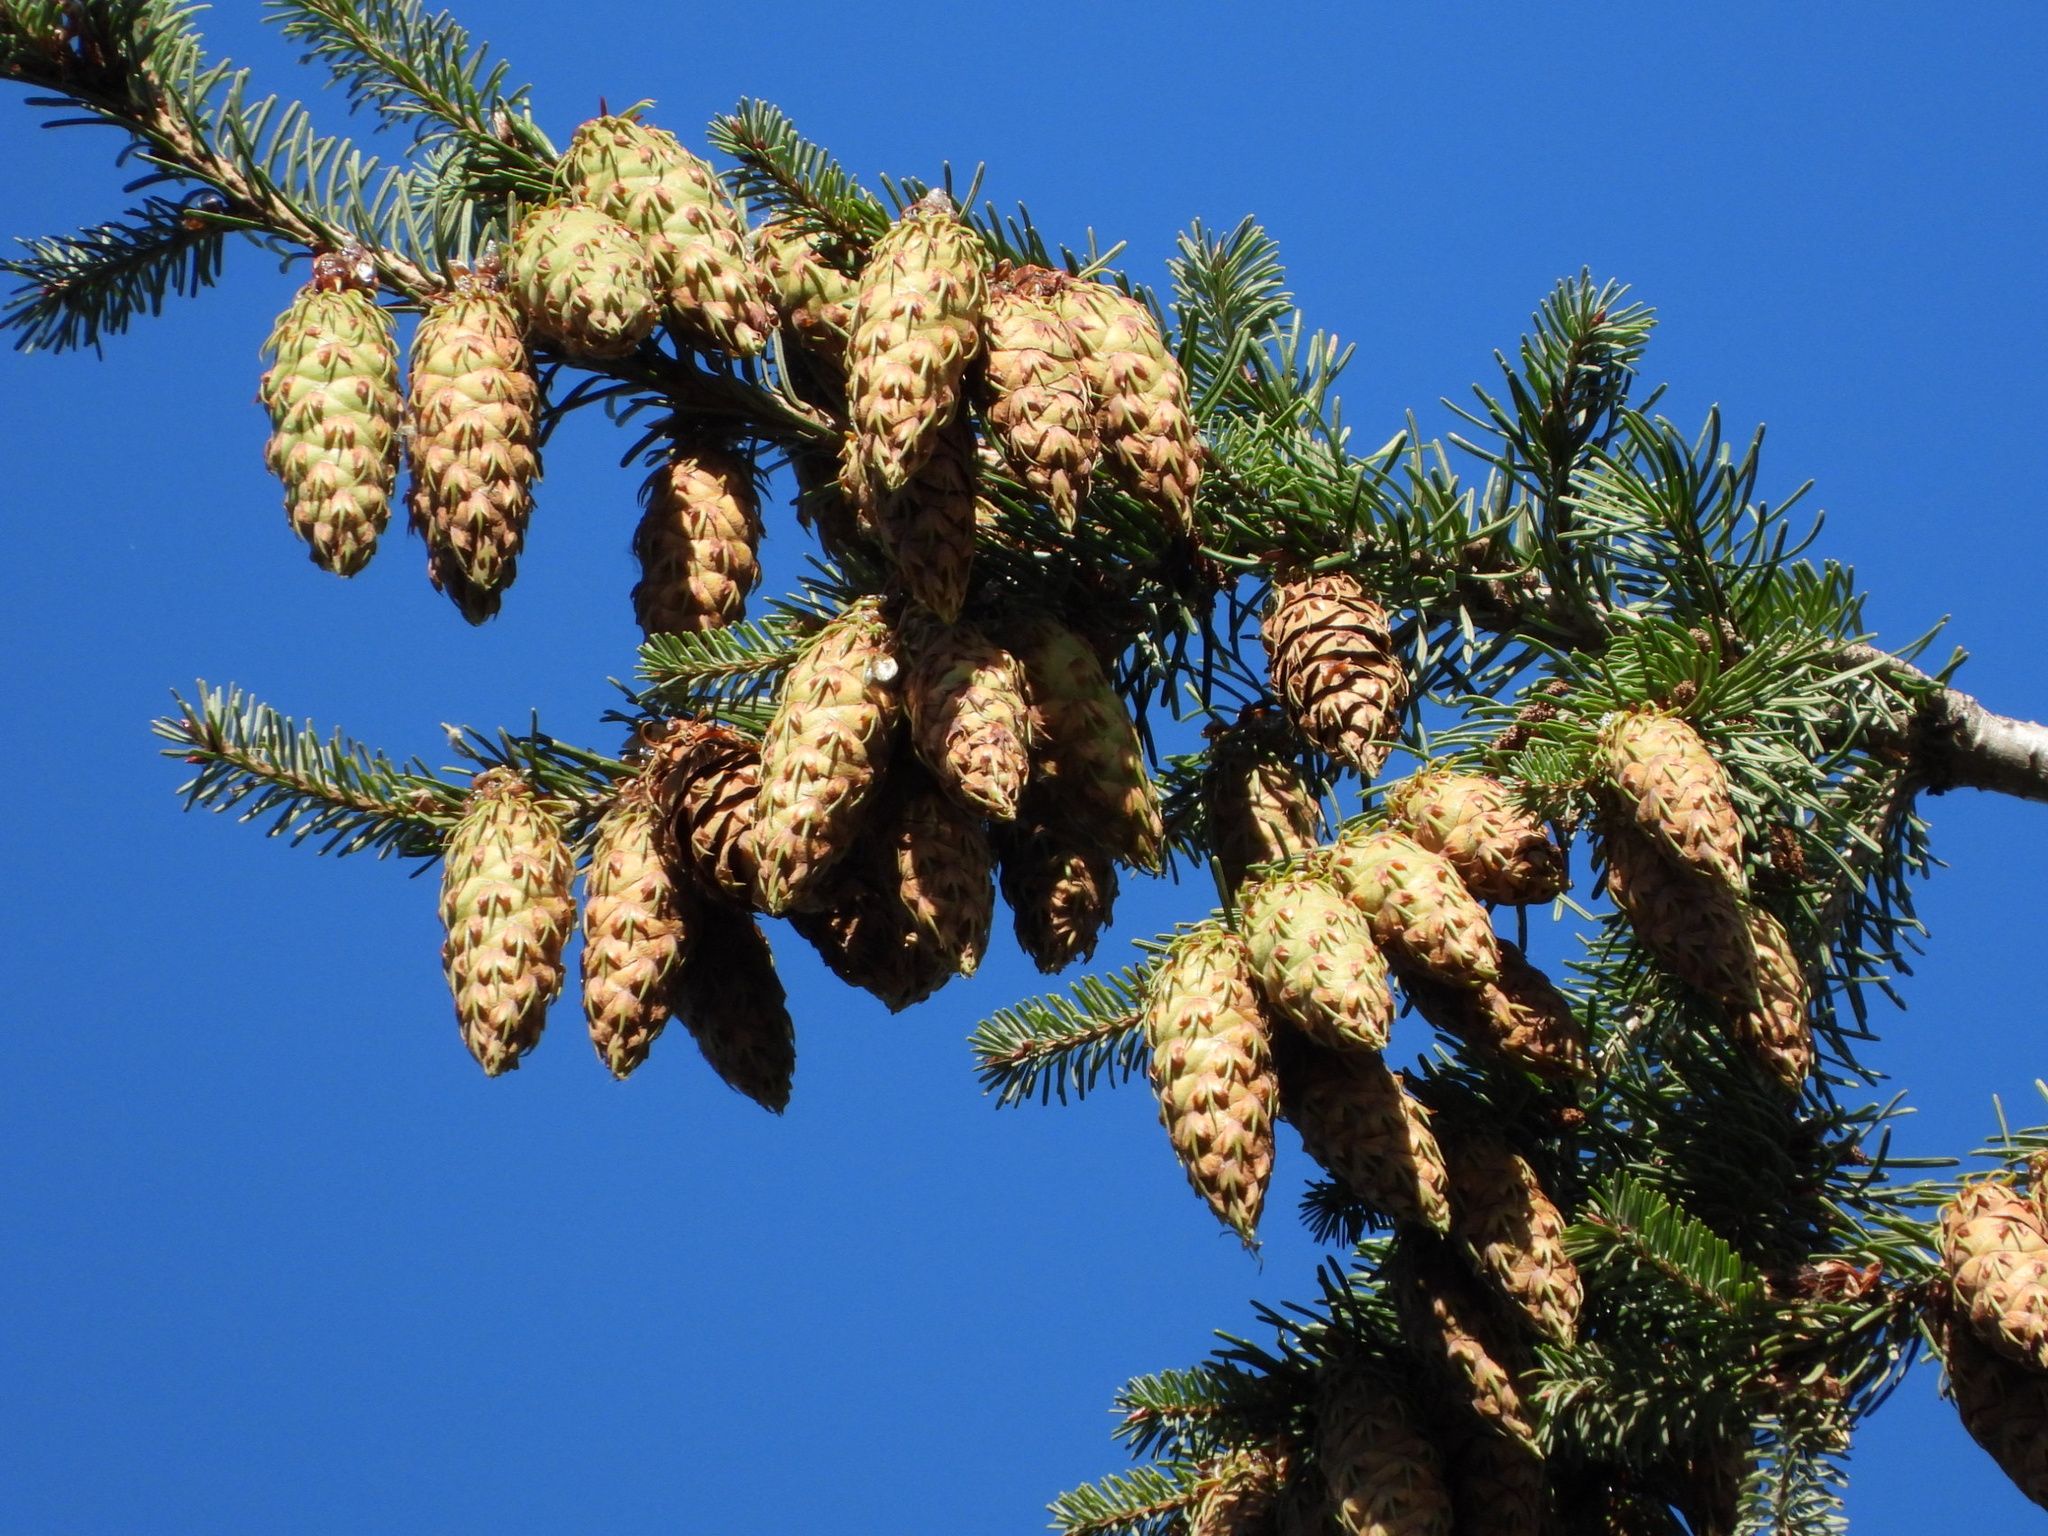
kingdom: Plantae
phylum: Tracheophyta
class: Pinopsida
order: Pinales
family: Pinaceae
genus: Pseudotsuga
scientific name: Pseudotsuga menziesii
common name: Douglas fir
